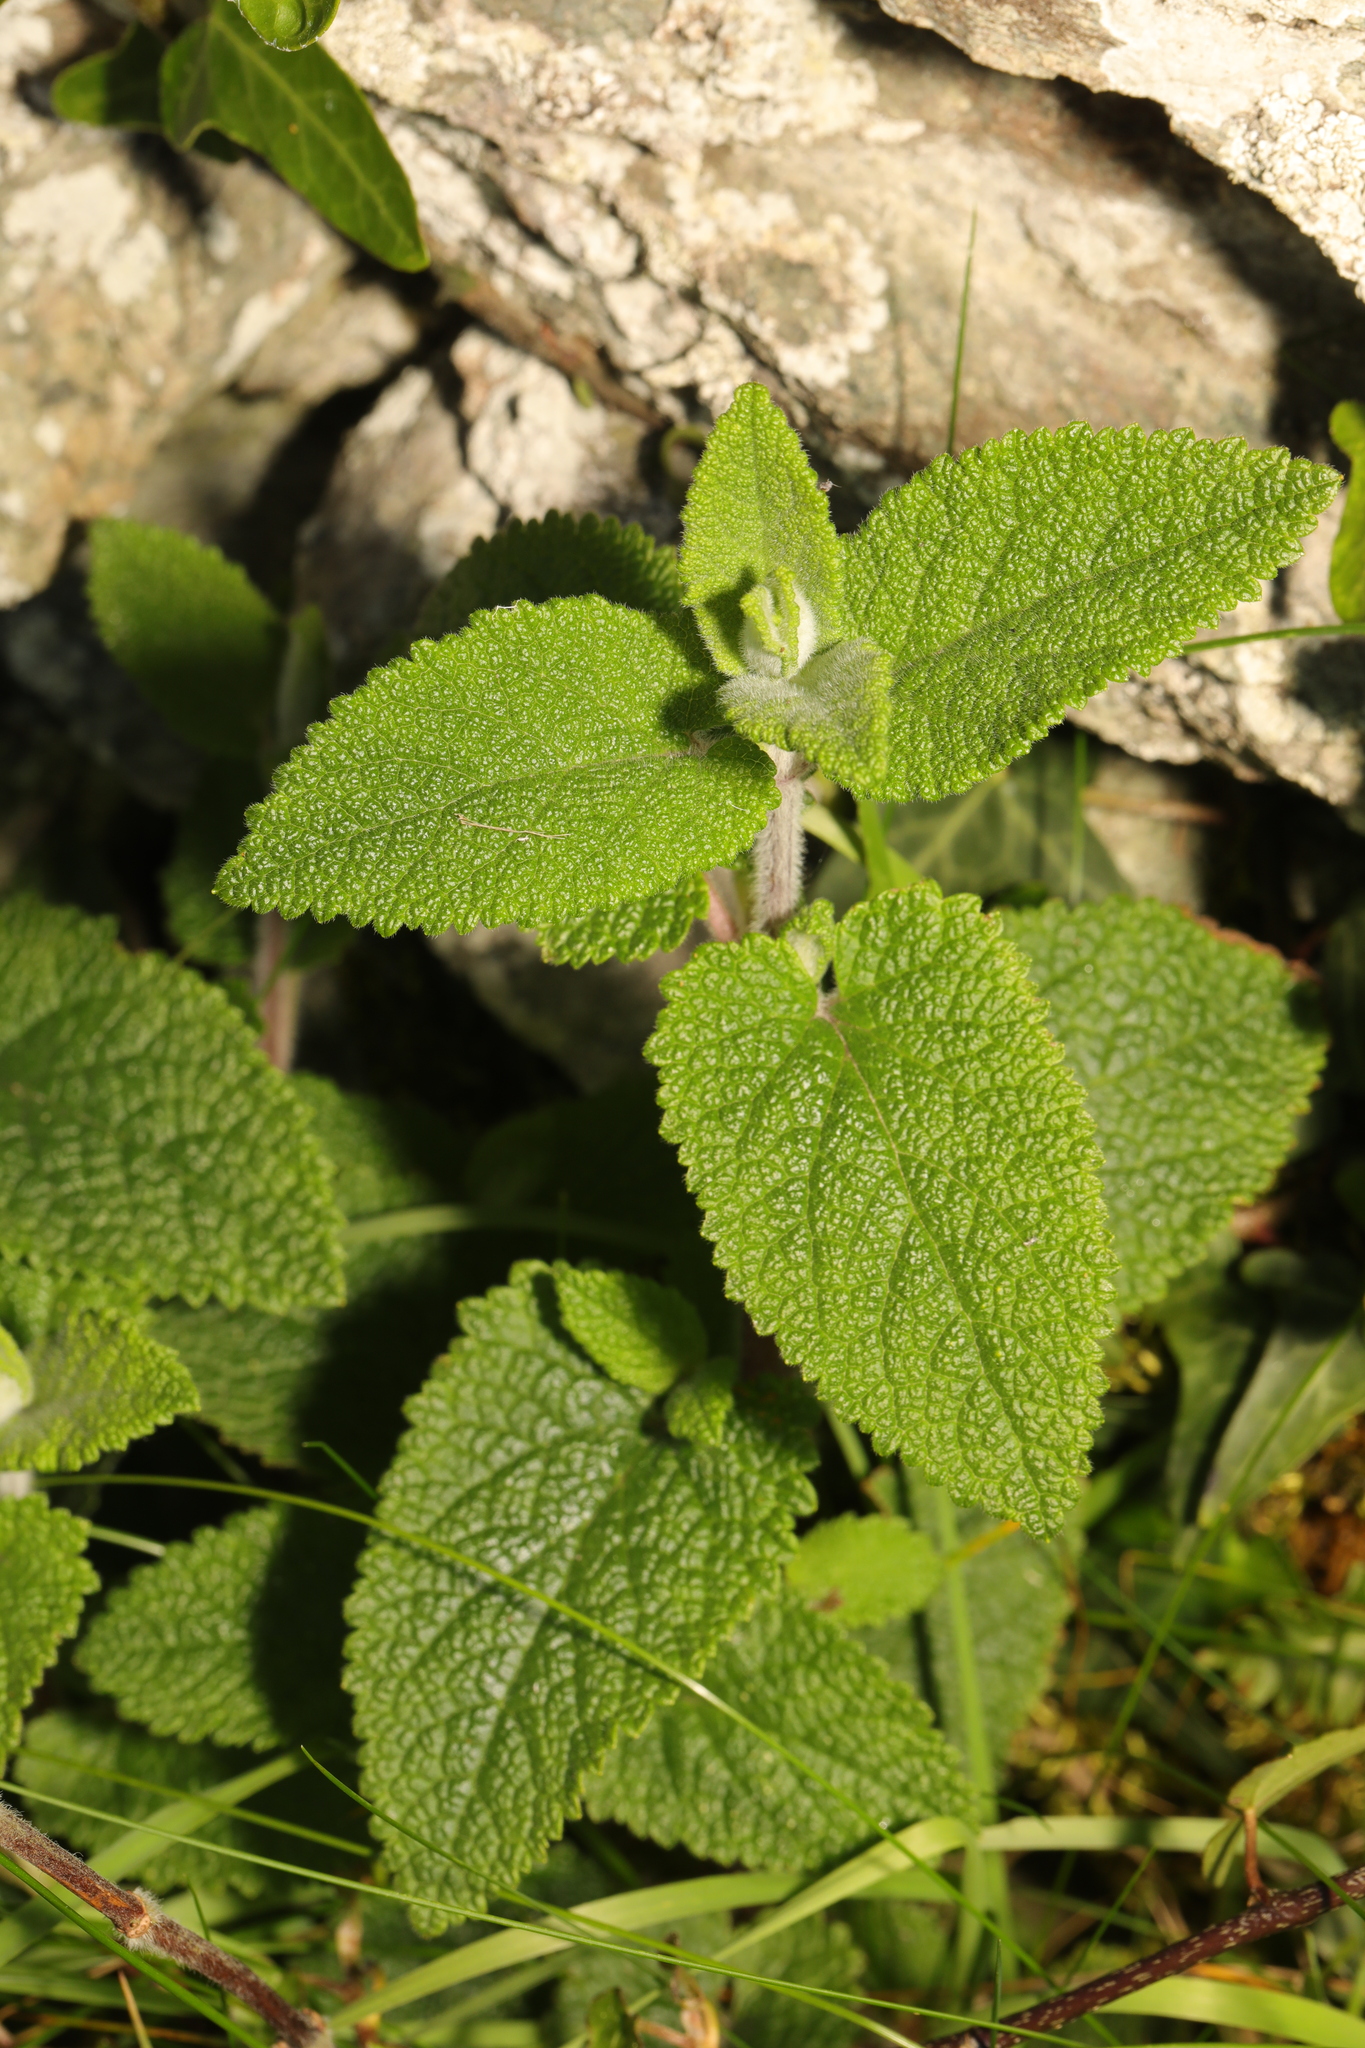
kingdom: Plantae
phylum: Tracheophyta
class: Magnoliopsida
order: Lamiales
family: Lamiaceae
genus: Teucrium
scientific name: Teucrium scorodonia
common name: Woodland germander
